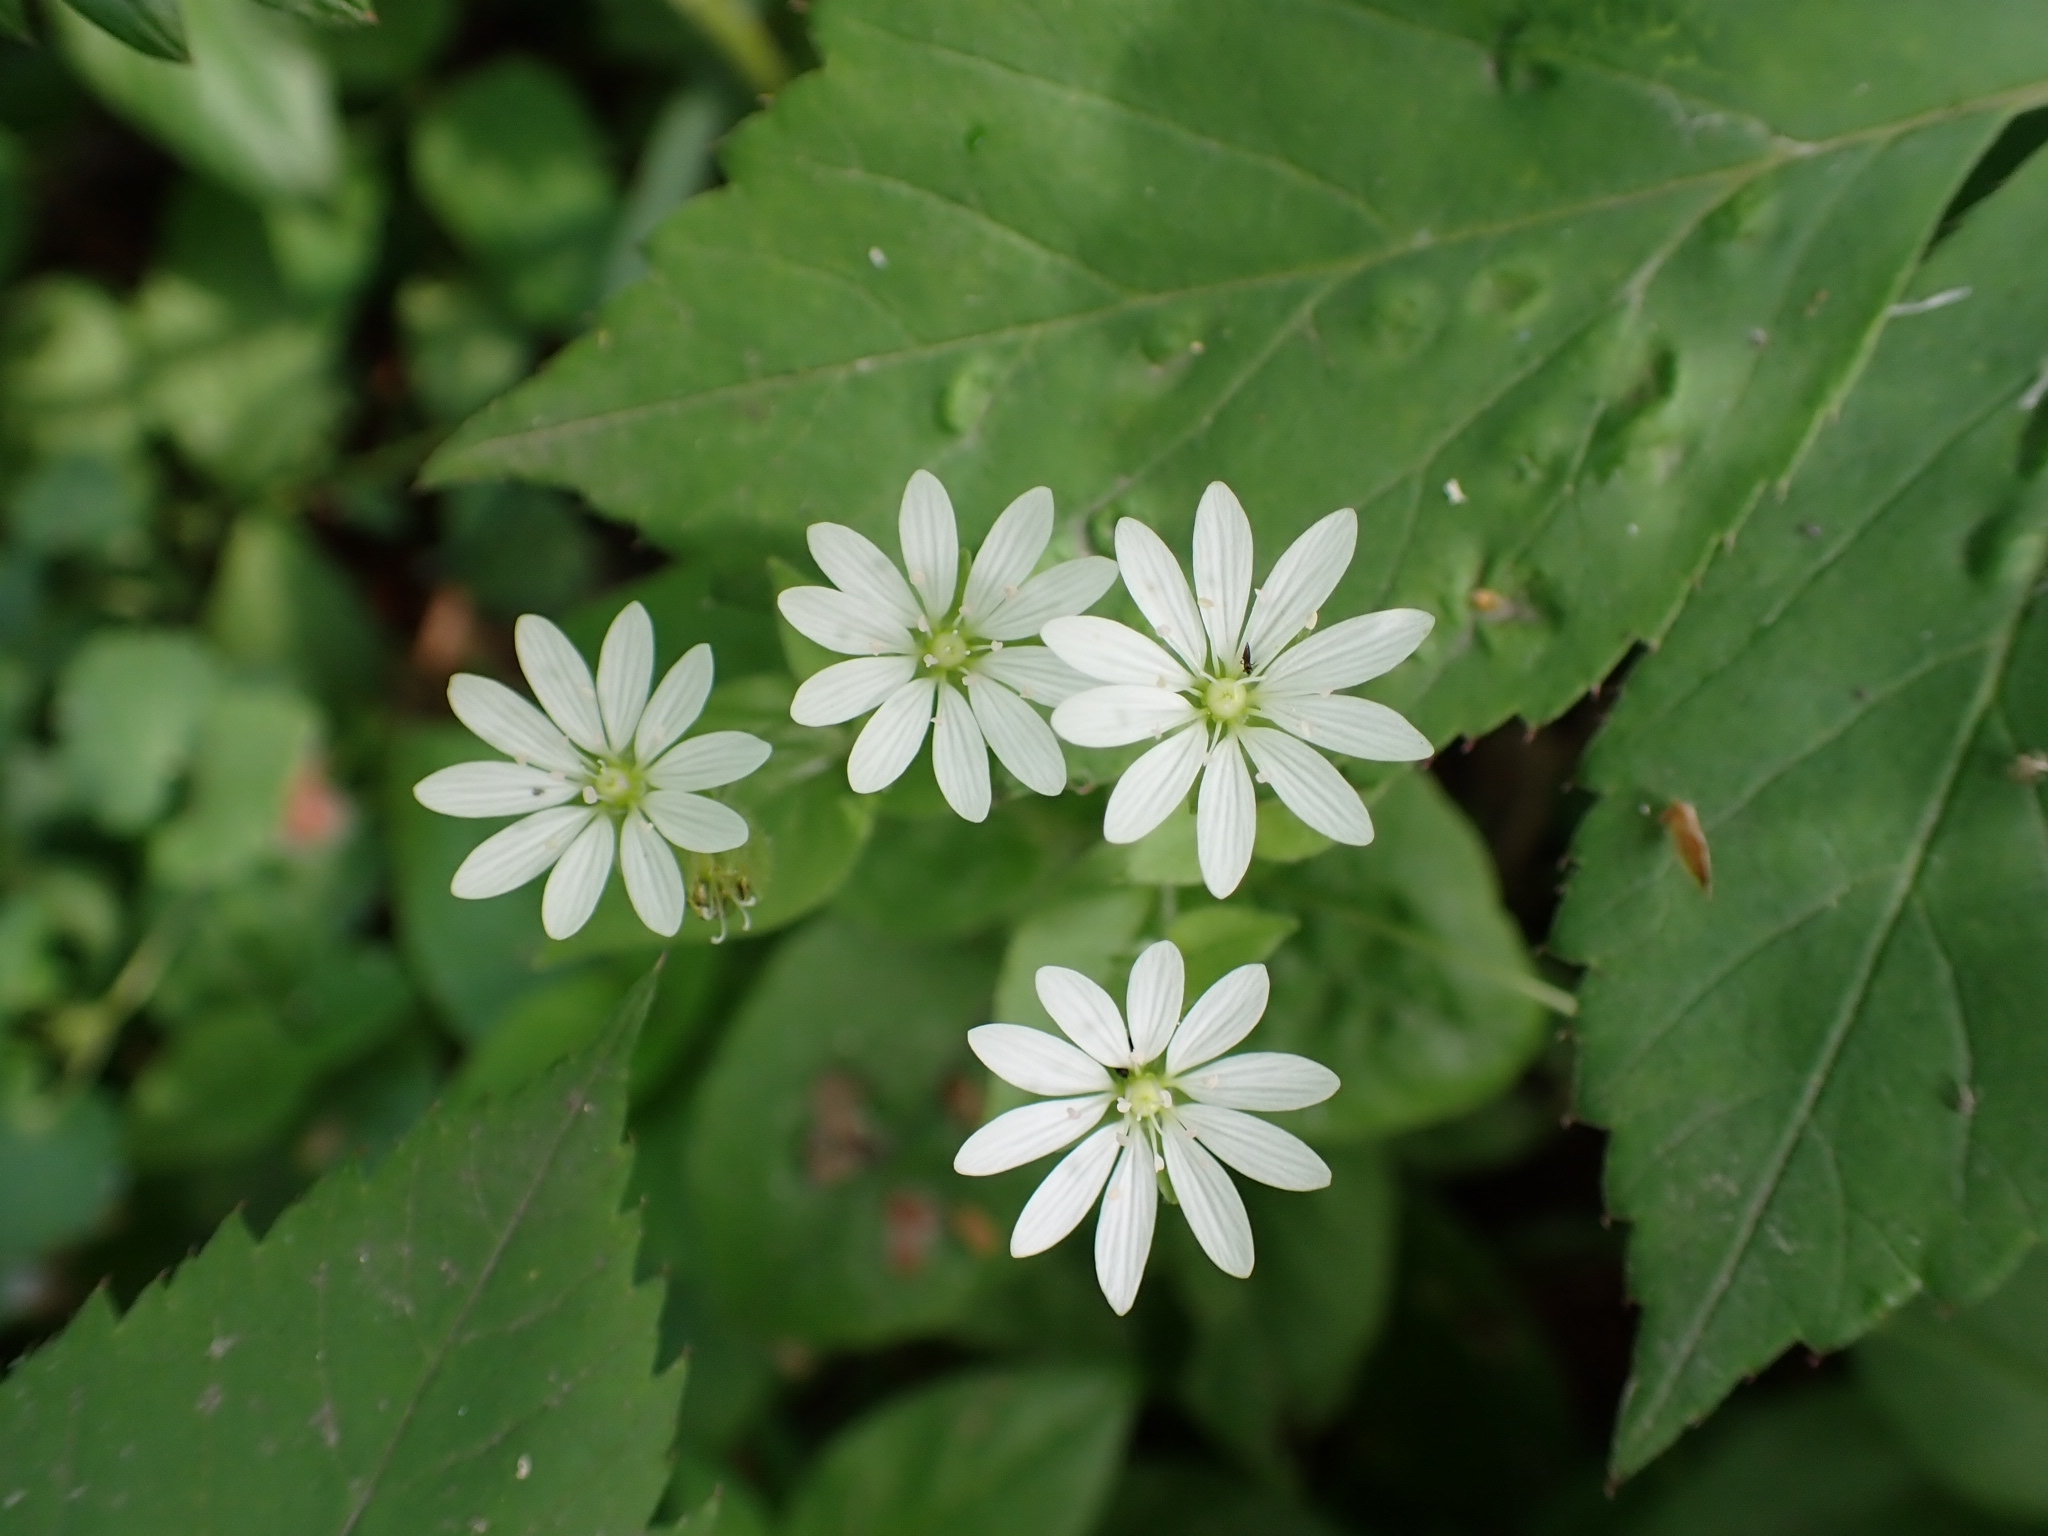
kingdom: Plantae
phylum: Tracheophyta
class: Magnoliopsida
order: Caryophyllales
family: Caryophyllaceae
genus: Stellaria
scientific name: Stellaria bungeana
